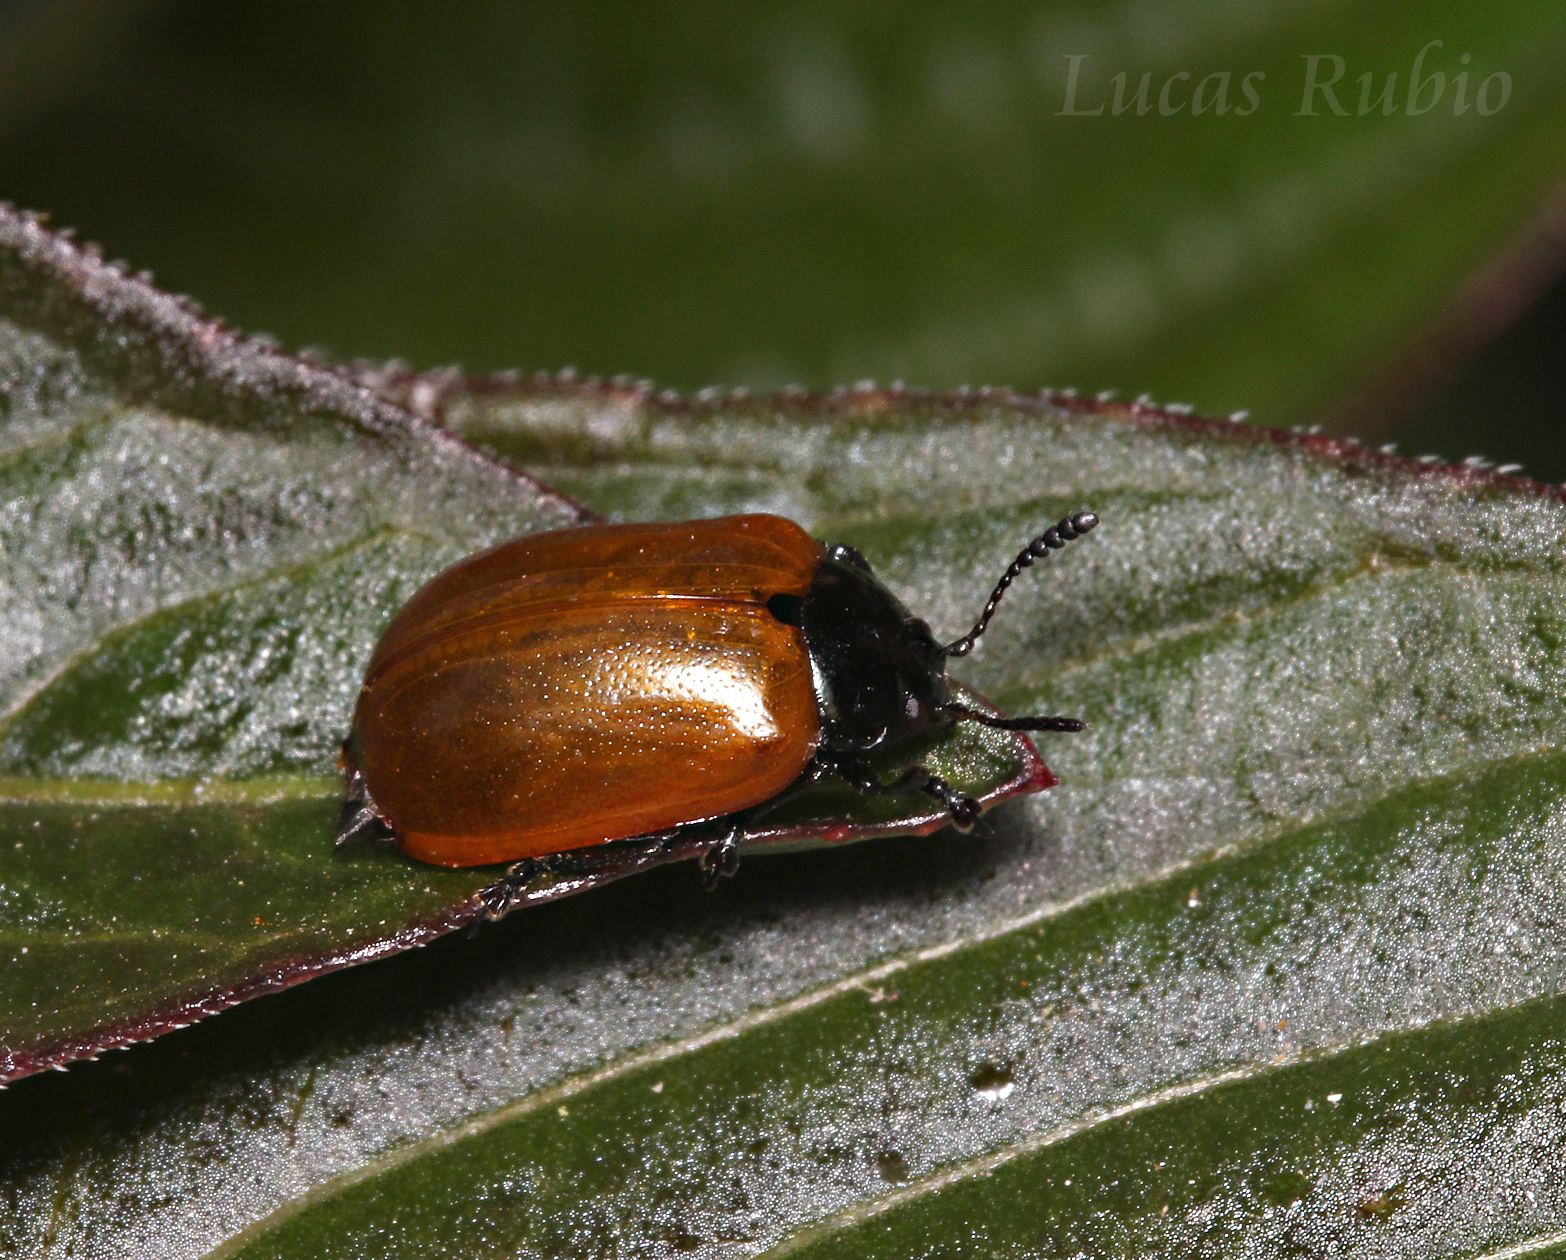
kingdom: Animalia
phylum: Arthropoda
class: Insecta
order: Coleoptera
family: Chrysomelidae
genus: Plagiodera
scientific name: Plagiodera
